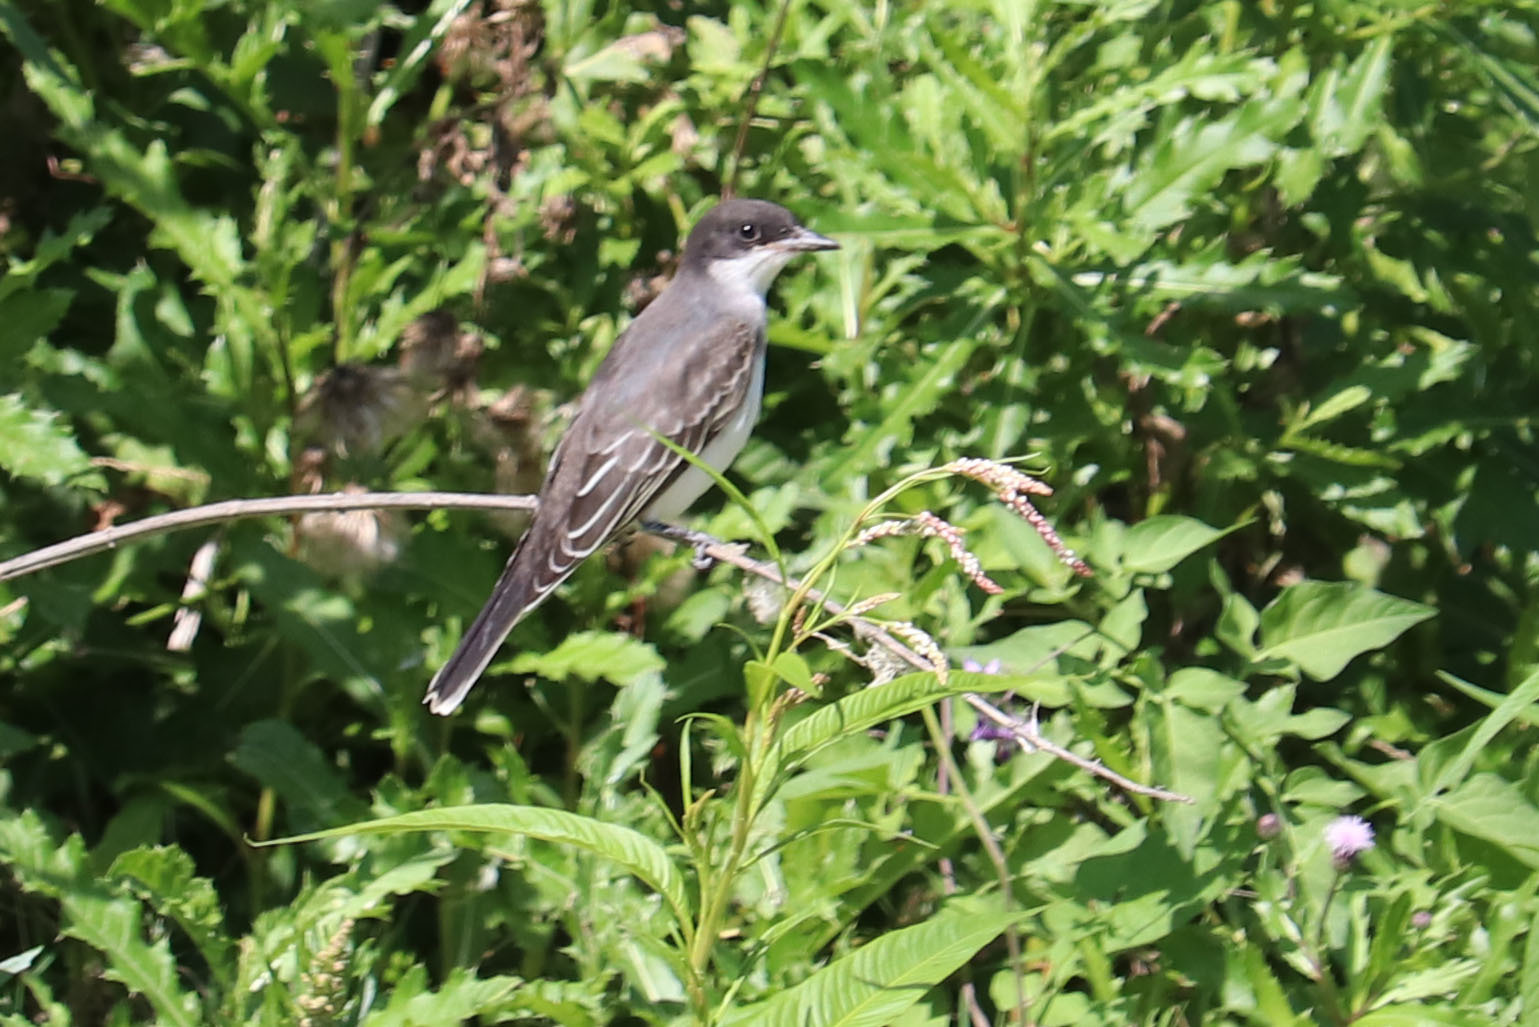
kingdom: Animalia
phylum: Chordata
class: Aves
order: Passeriformes
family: Tyrannidae
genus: Tyrannus
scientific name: Tyrannus tyrannus
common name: Eastern kingbird
